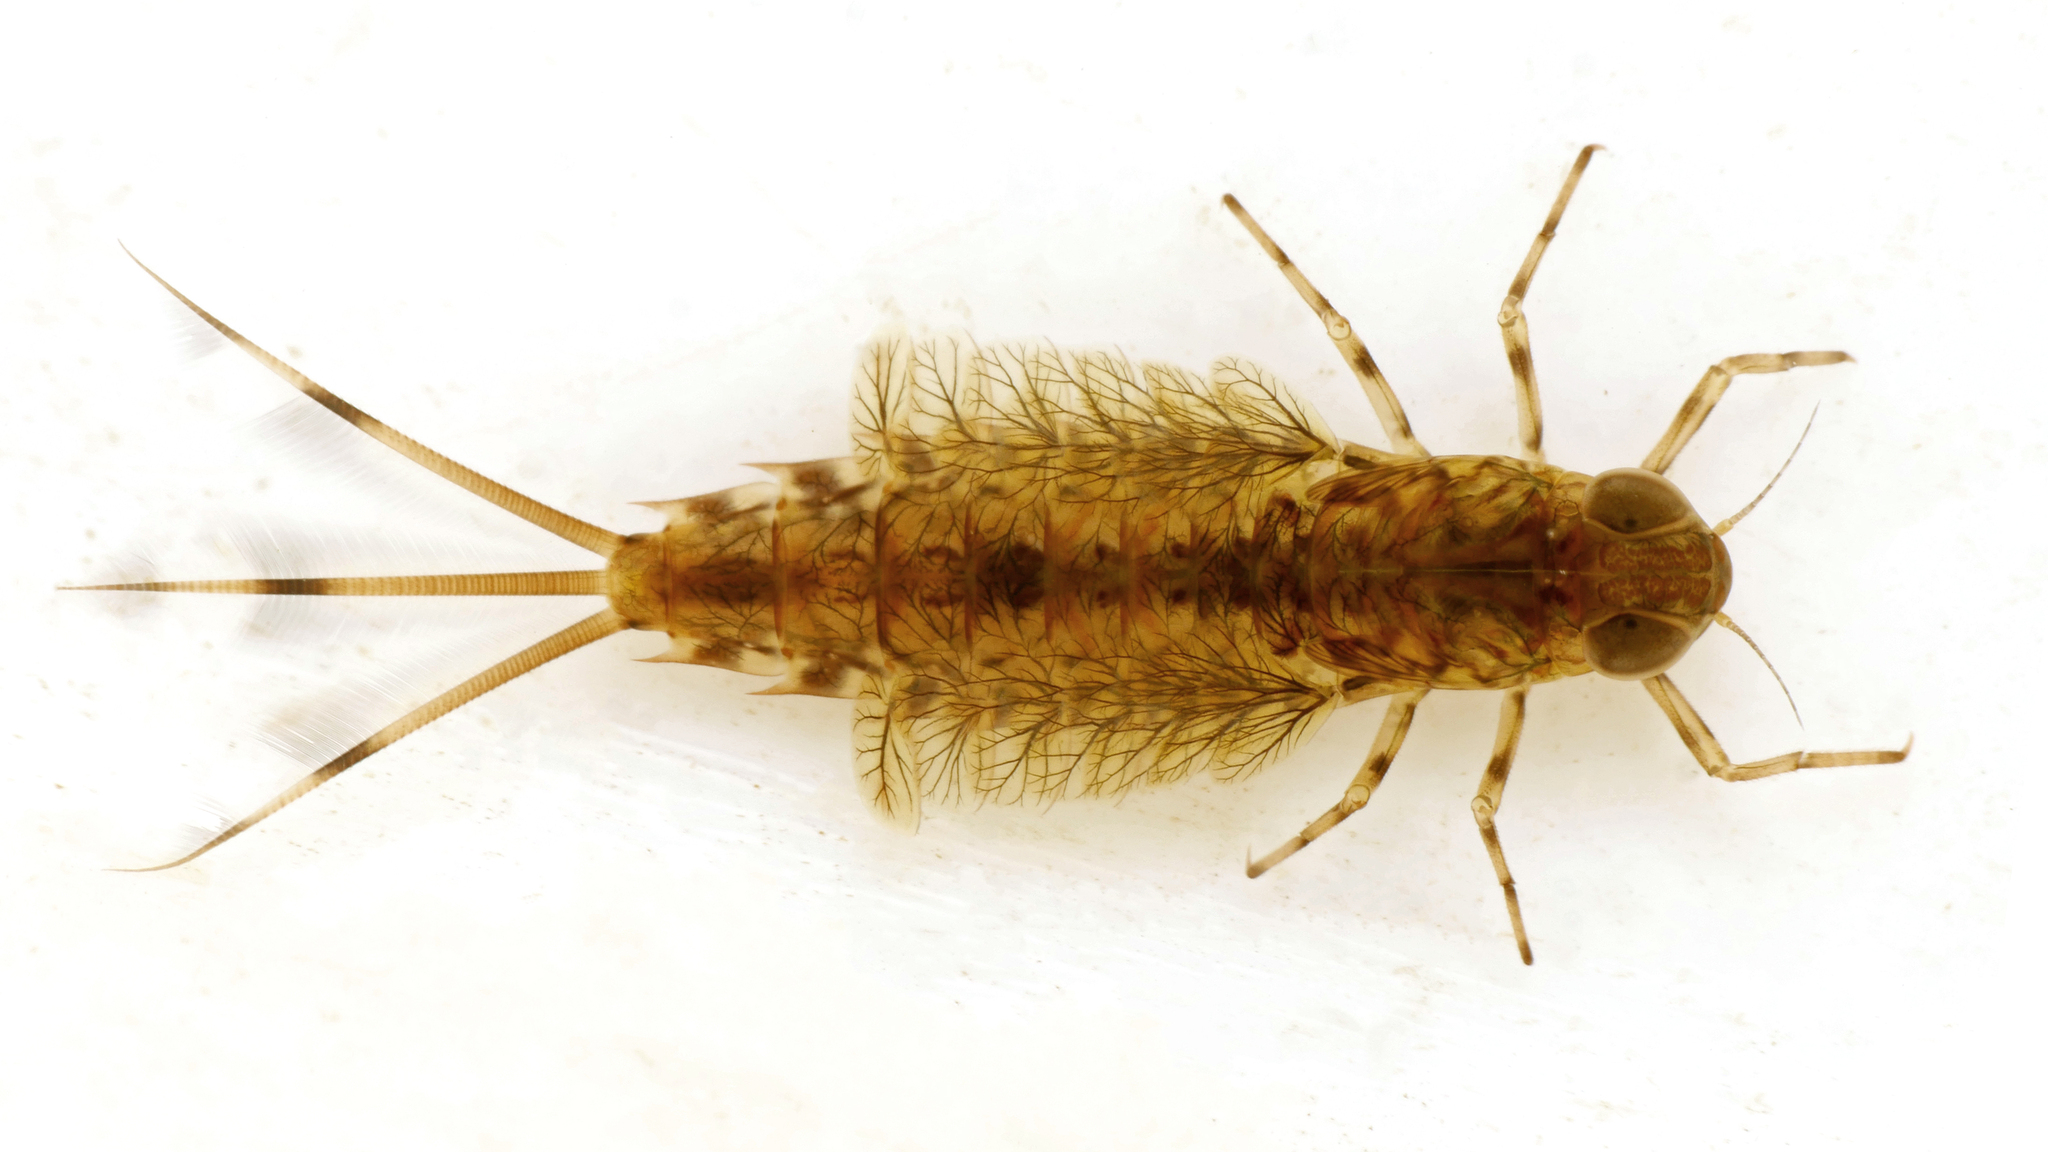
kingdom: Animalia
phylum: Arthropoda
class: Insecta
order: Ephemeroptera
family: Siphlonuridae
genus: Siphlonurus
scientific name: Siphlonurus alternatus
